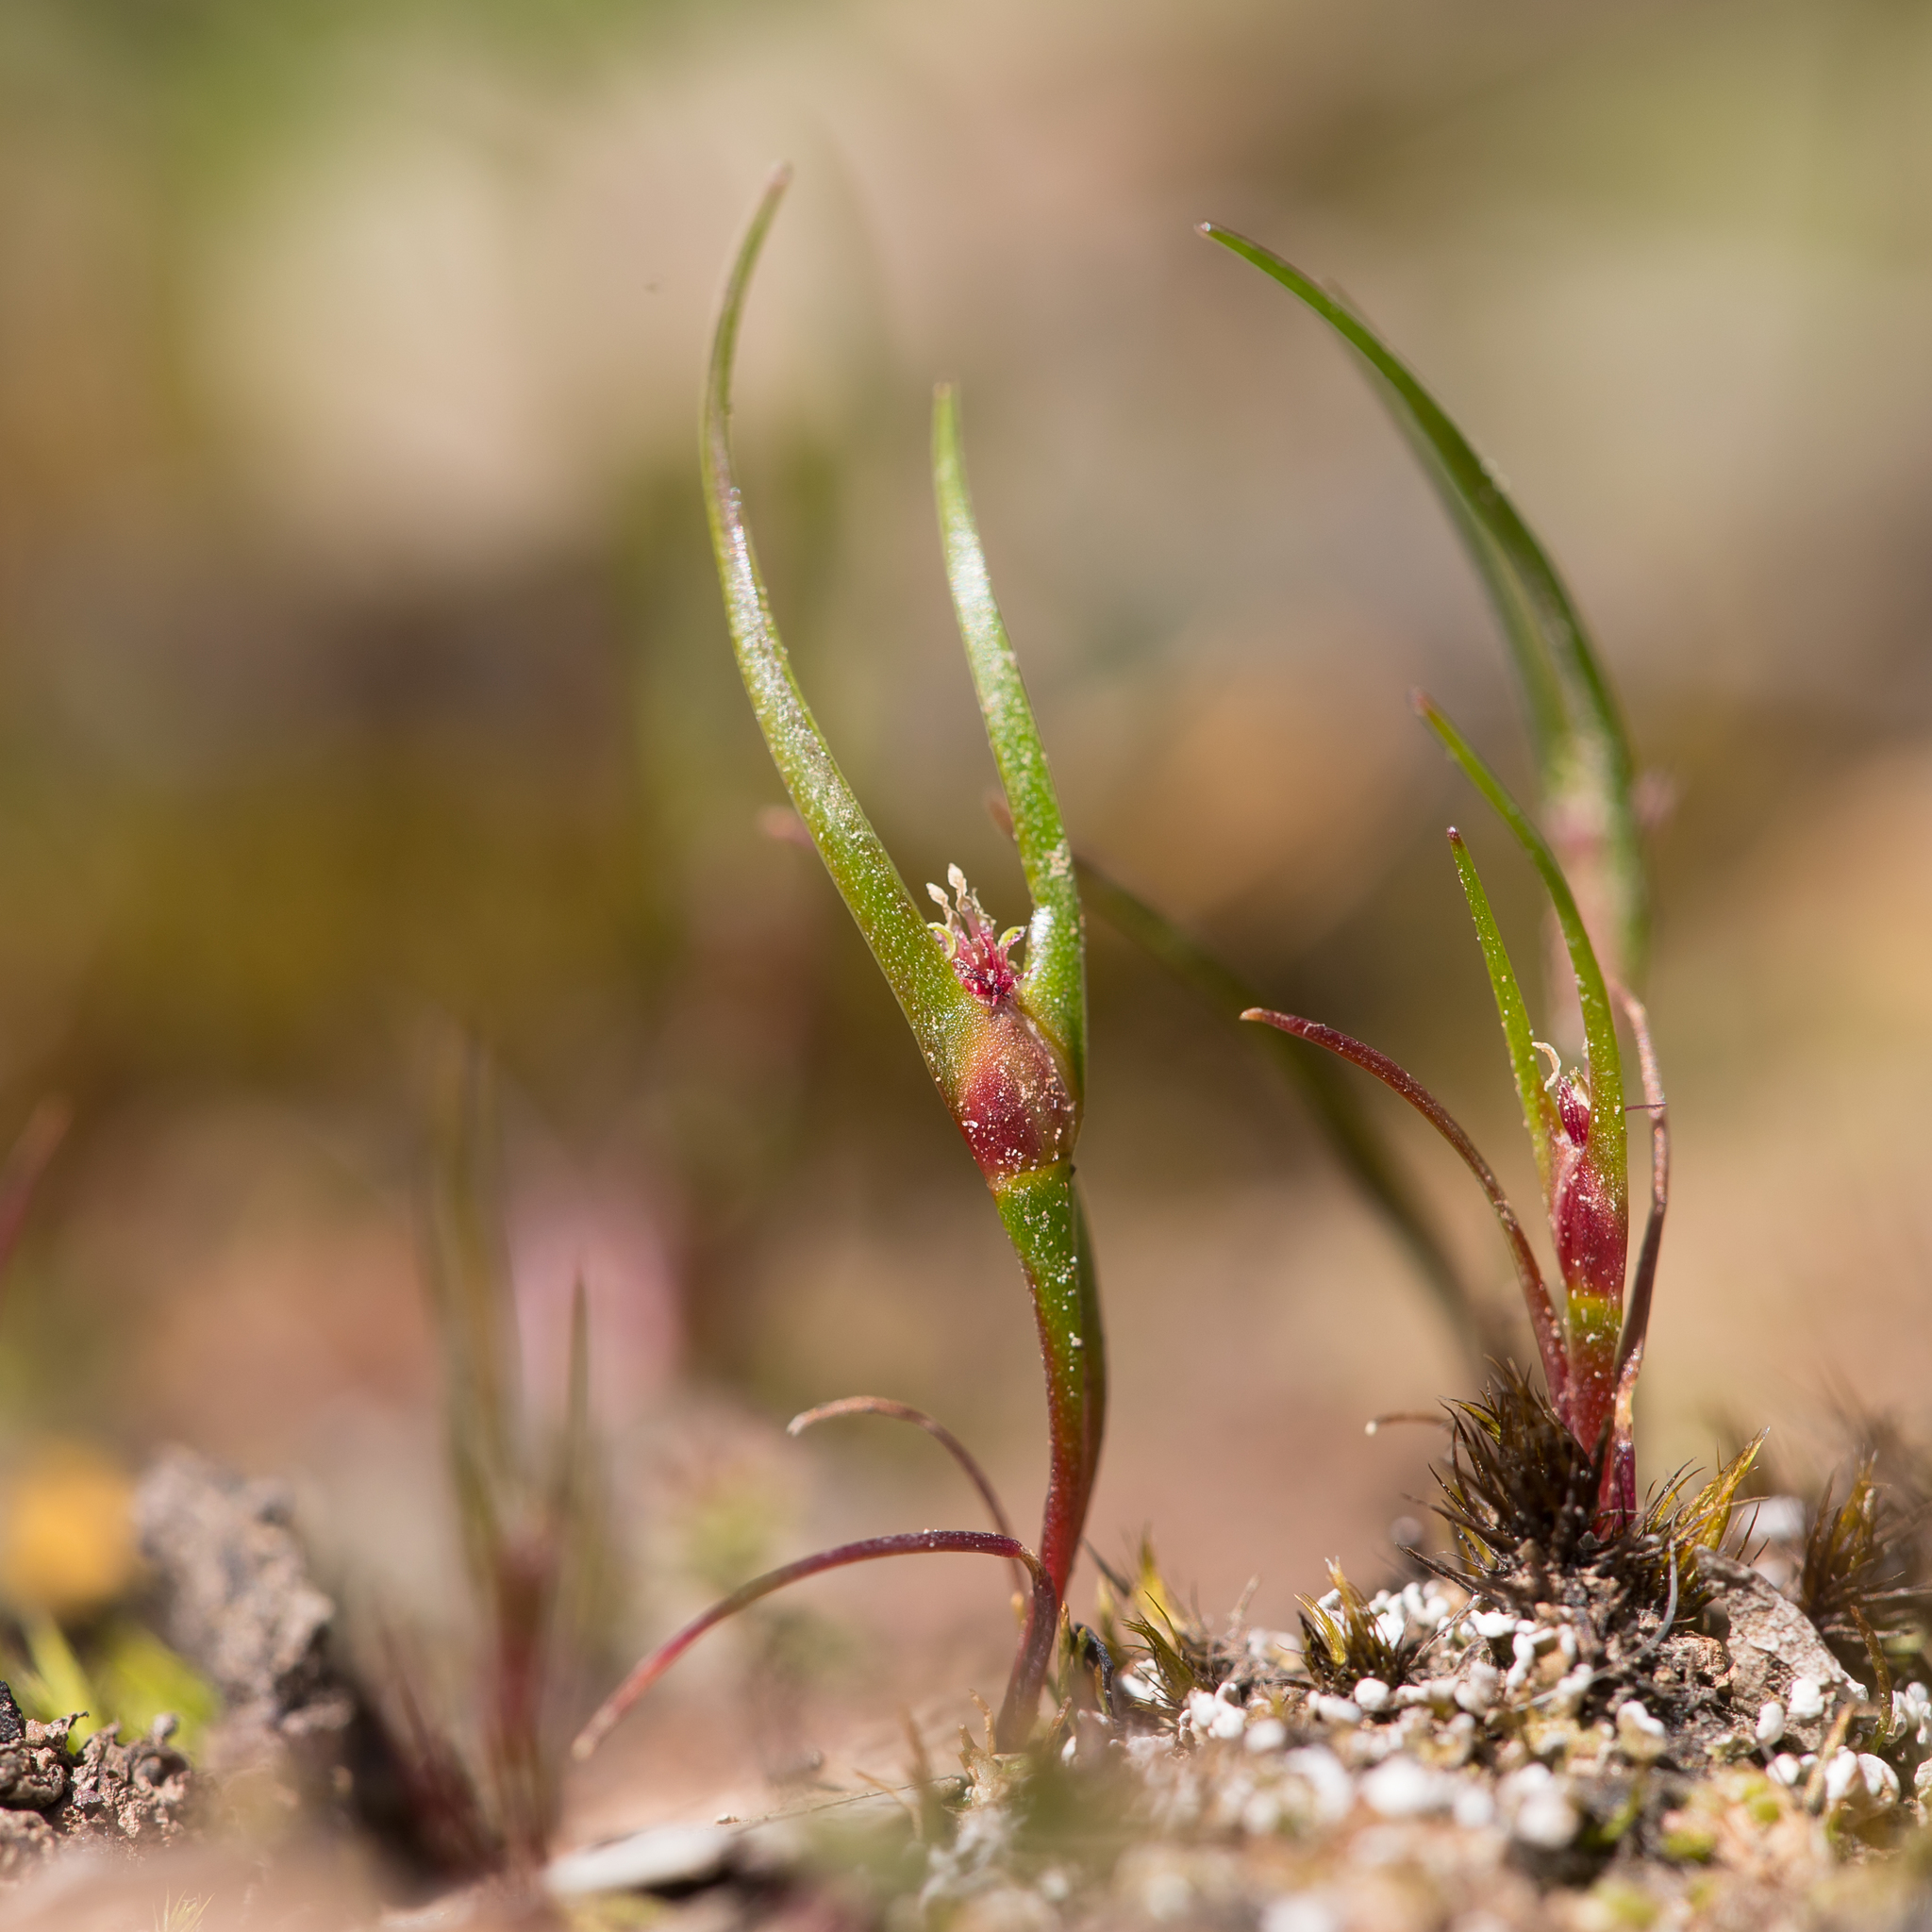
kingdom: Plantae
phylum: Tracheophyta
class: Liliopsida
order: Poales
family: Restionaceae
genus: Centrolepis
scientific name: Centrolepis aristata
